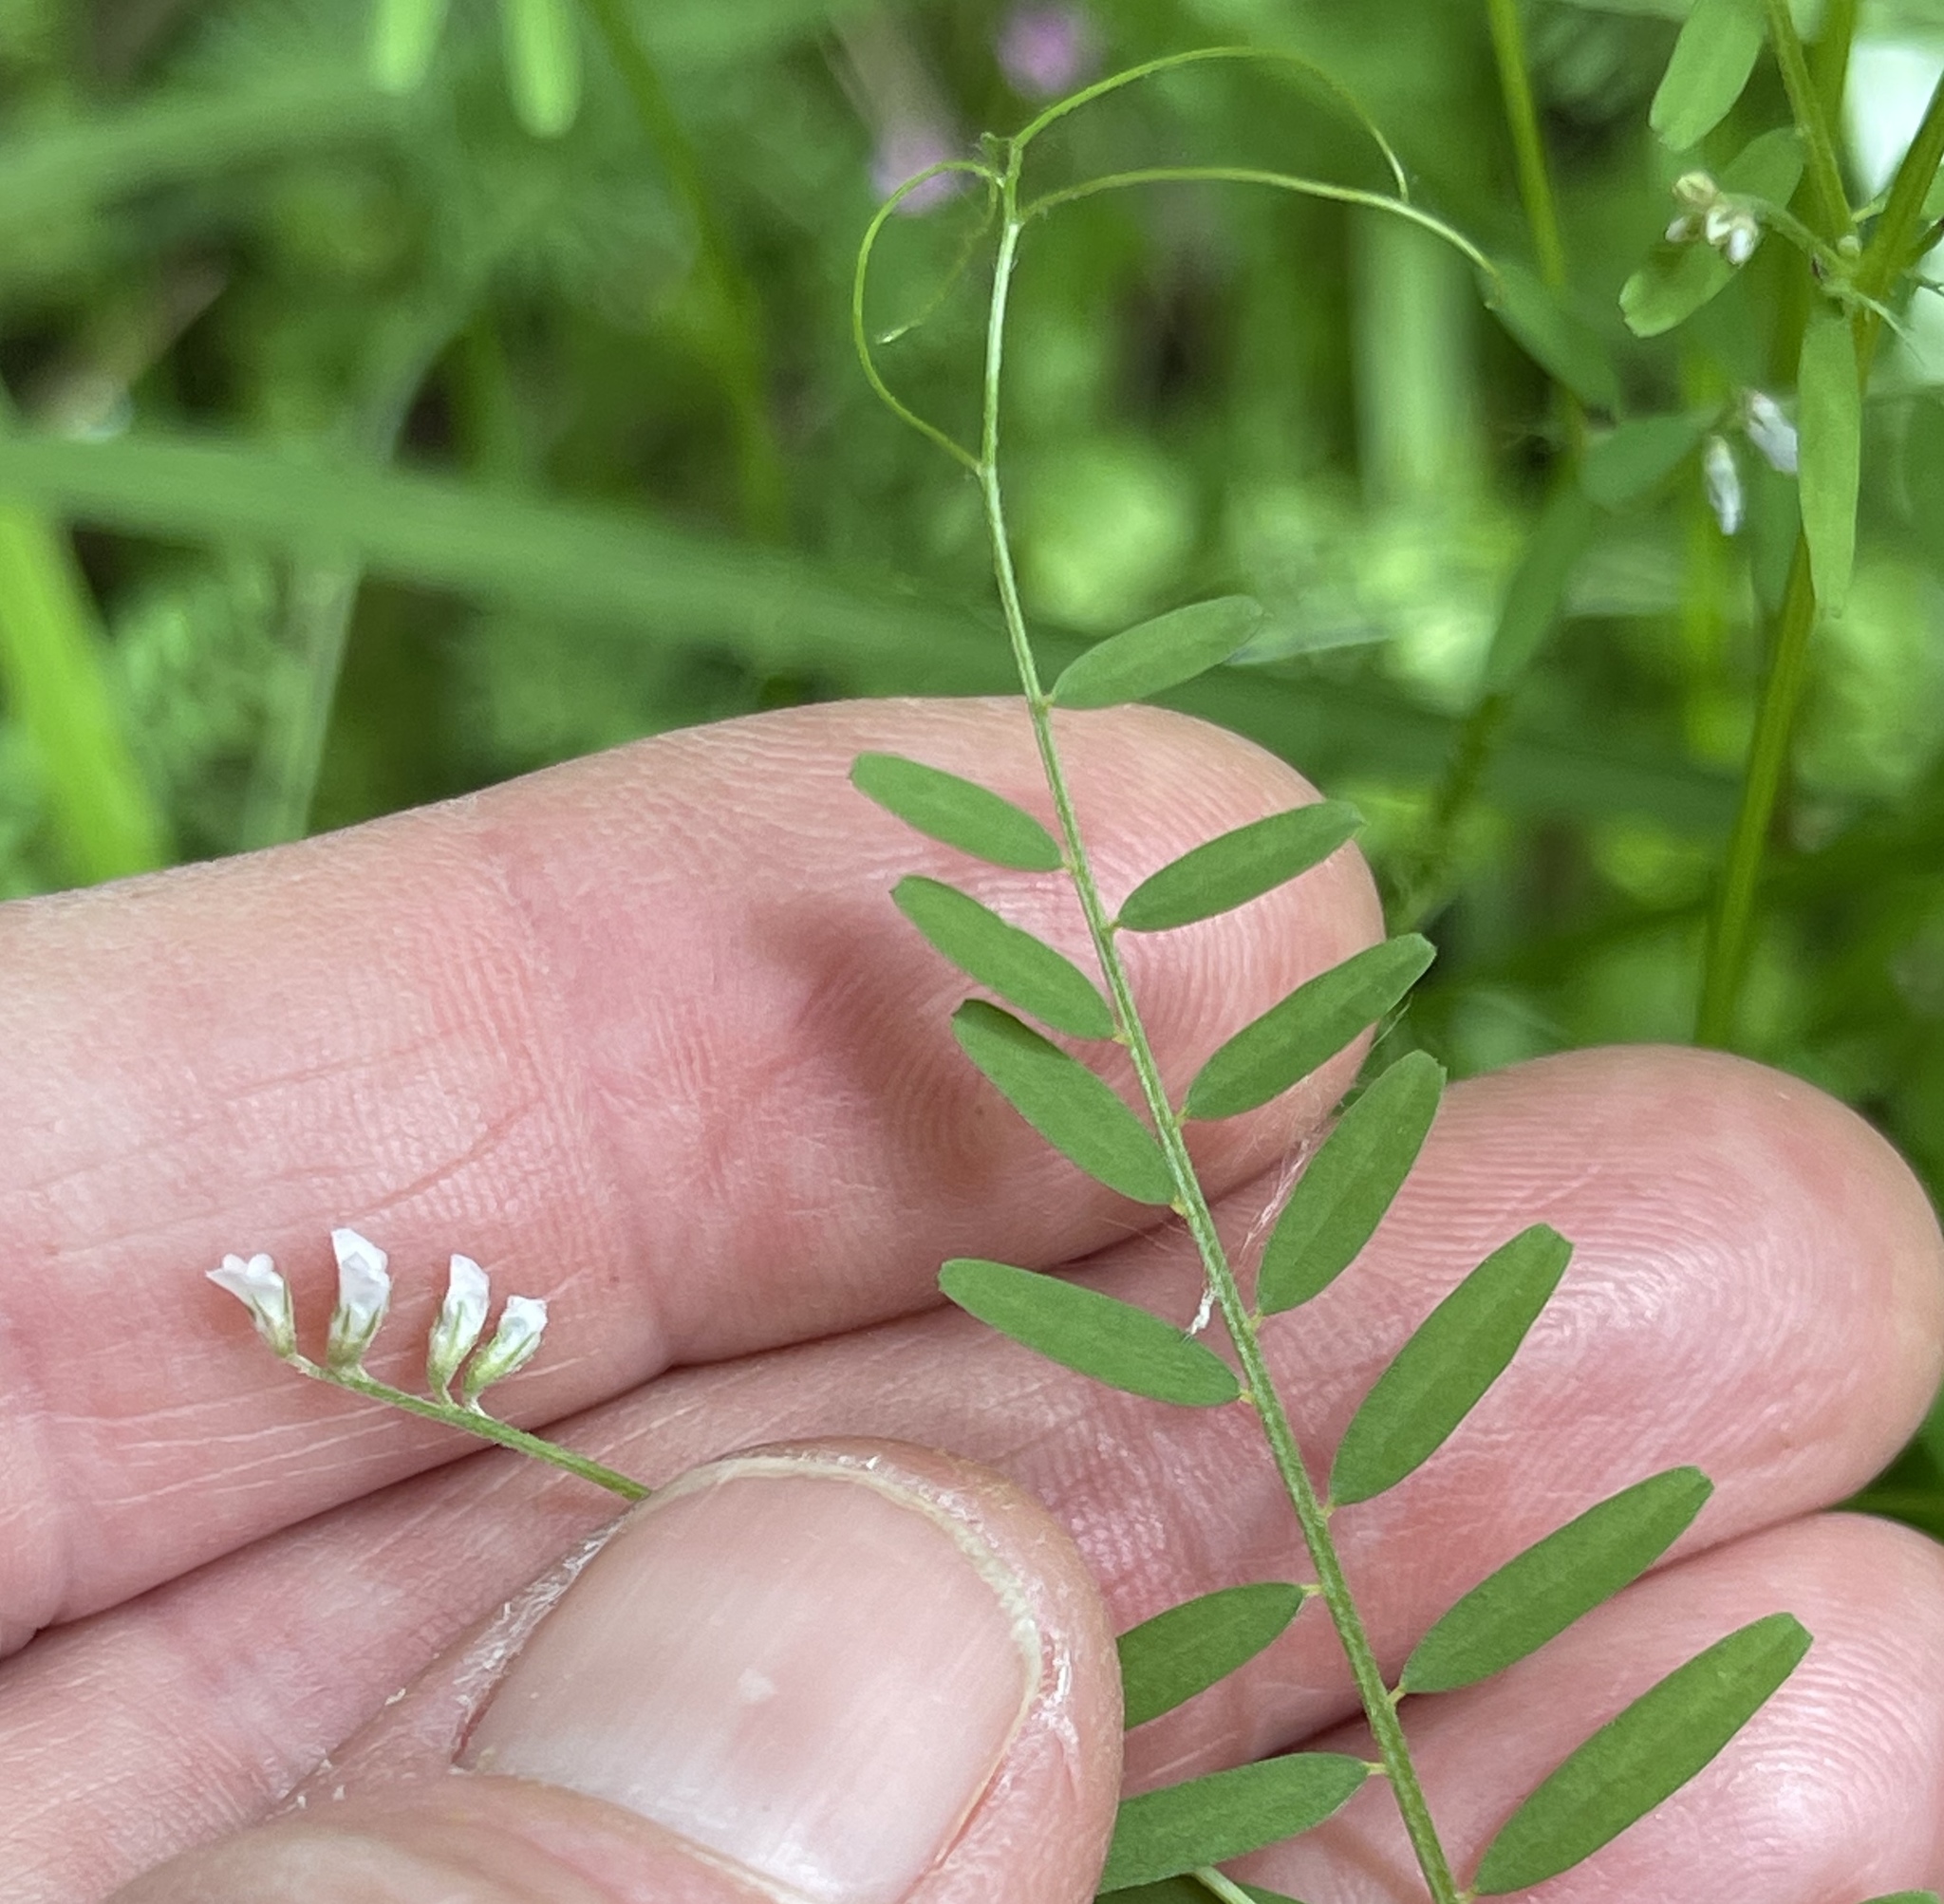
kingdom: Plantae
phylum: Tracheophyta
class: Magnoliopsida
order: Fabales
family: Fabaceae
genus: Vicia
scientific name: Vicia hirsuta
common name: Tiny vetch
